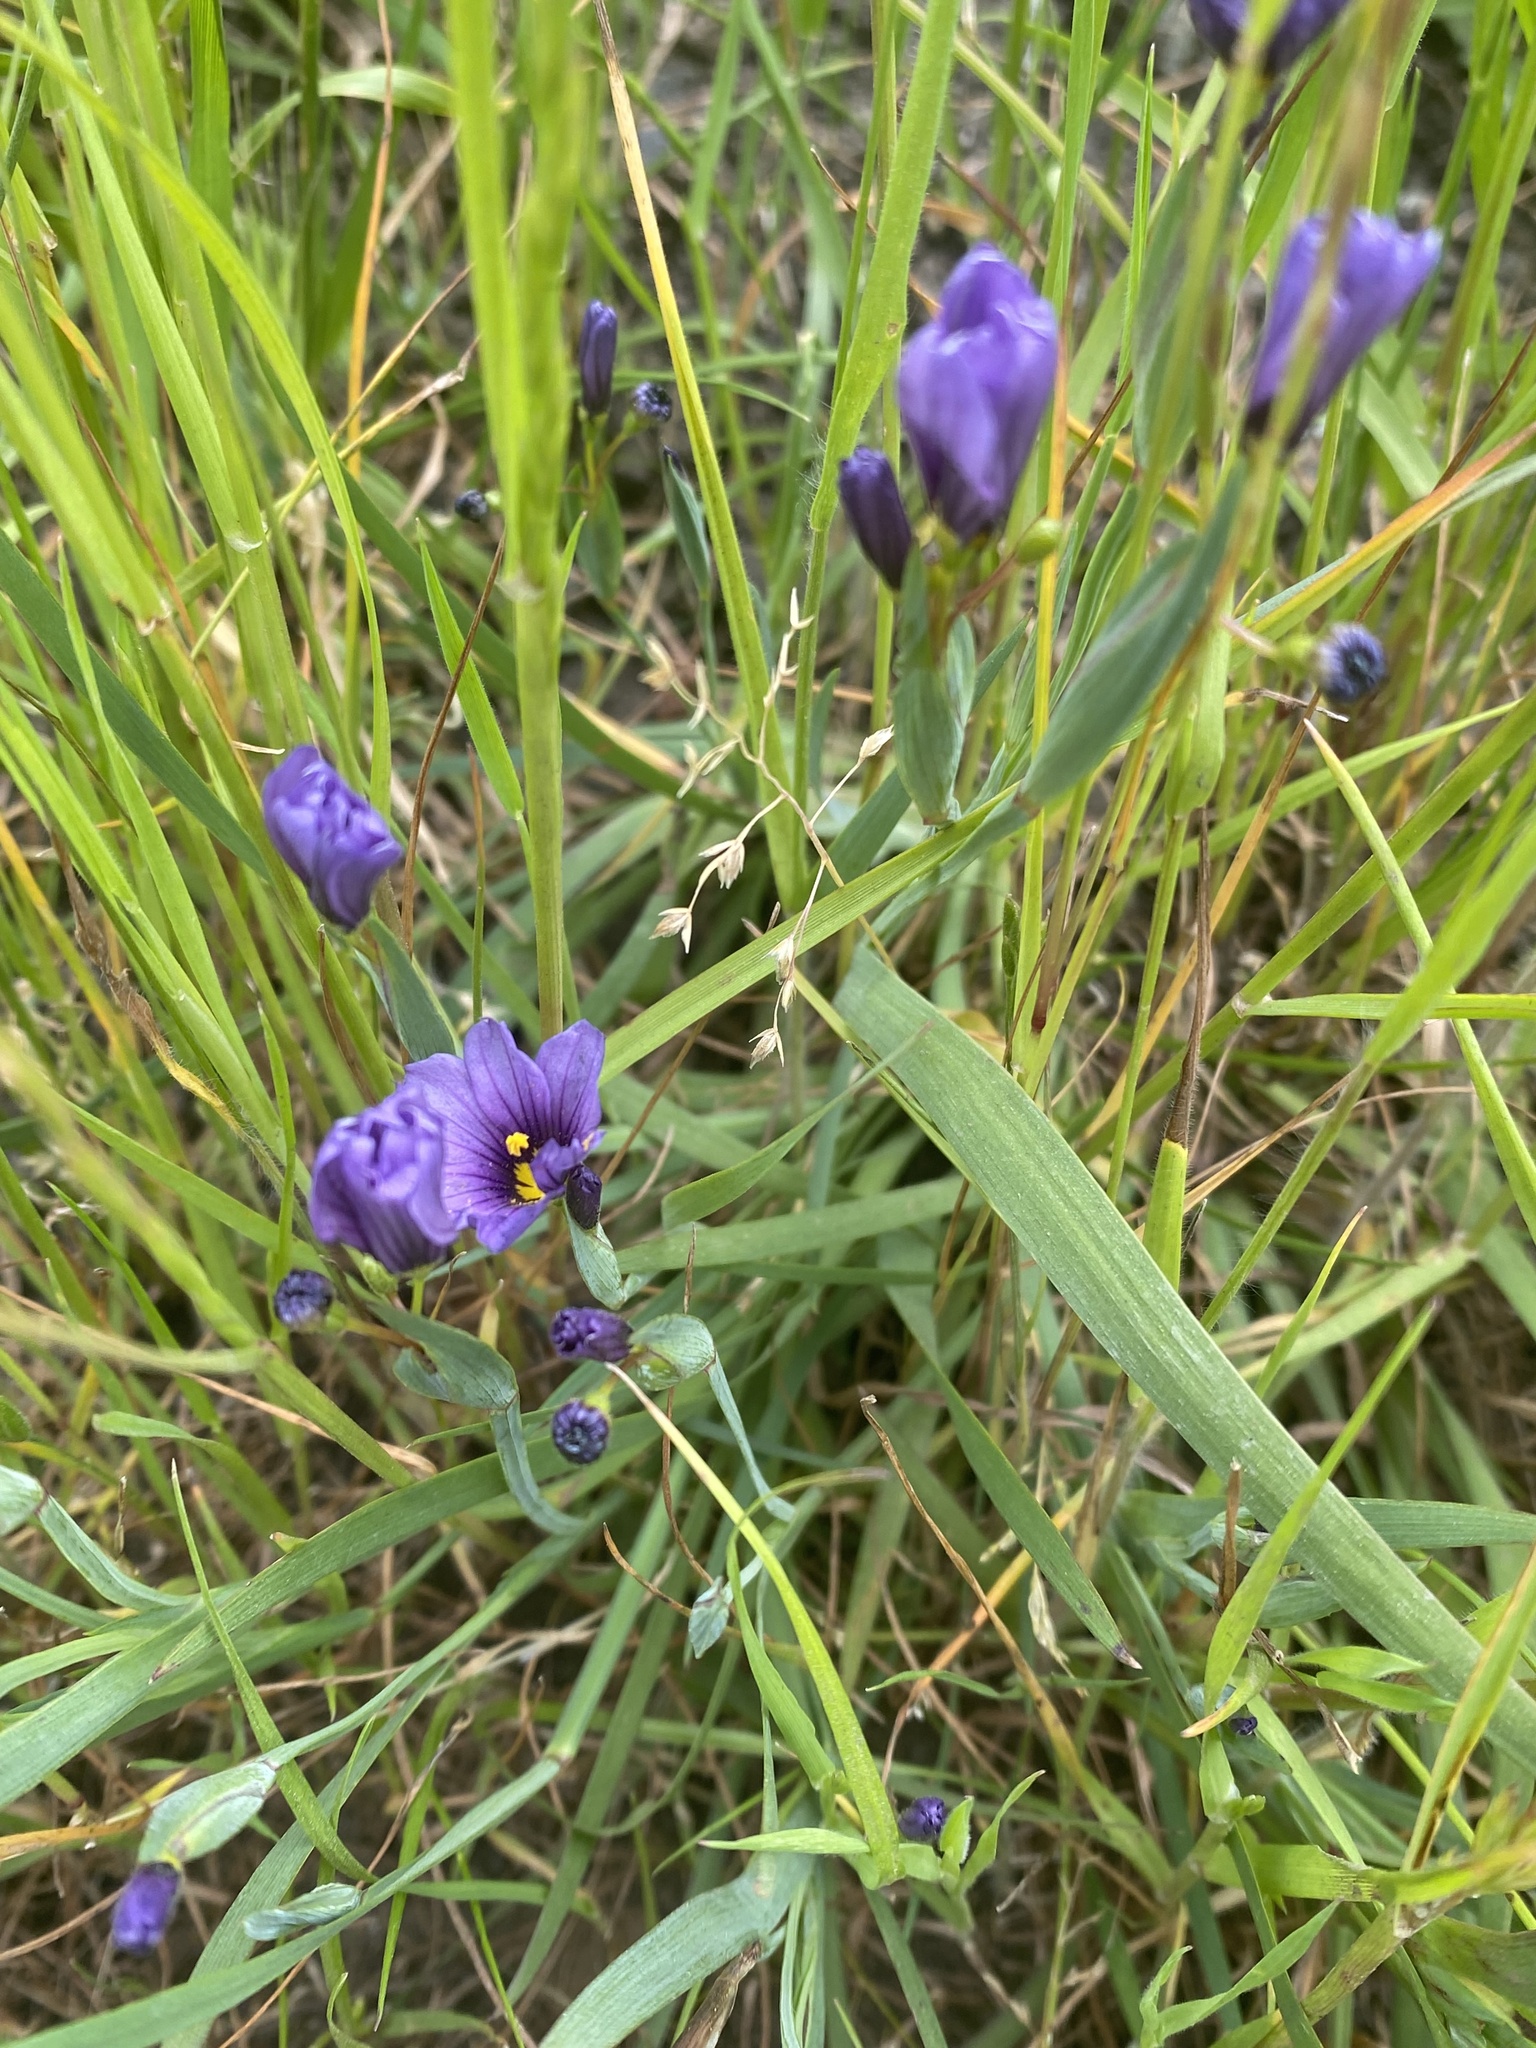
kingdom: Plantae
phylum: Tracheophyta
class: Liliopsida
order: Asparagales
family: Iridaceae
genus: Sisyrinchium
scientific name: Sisyrinchium bellum
